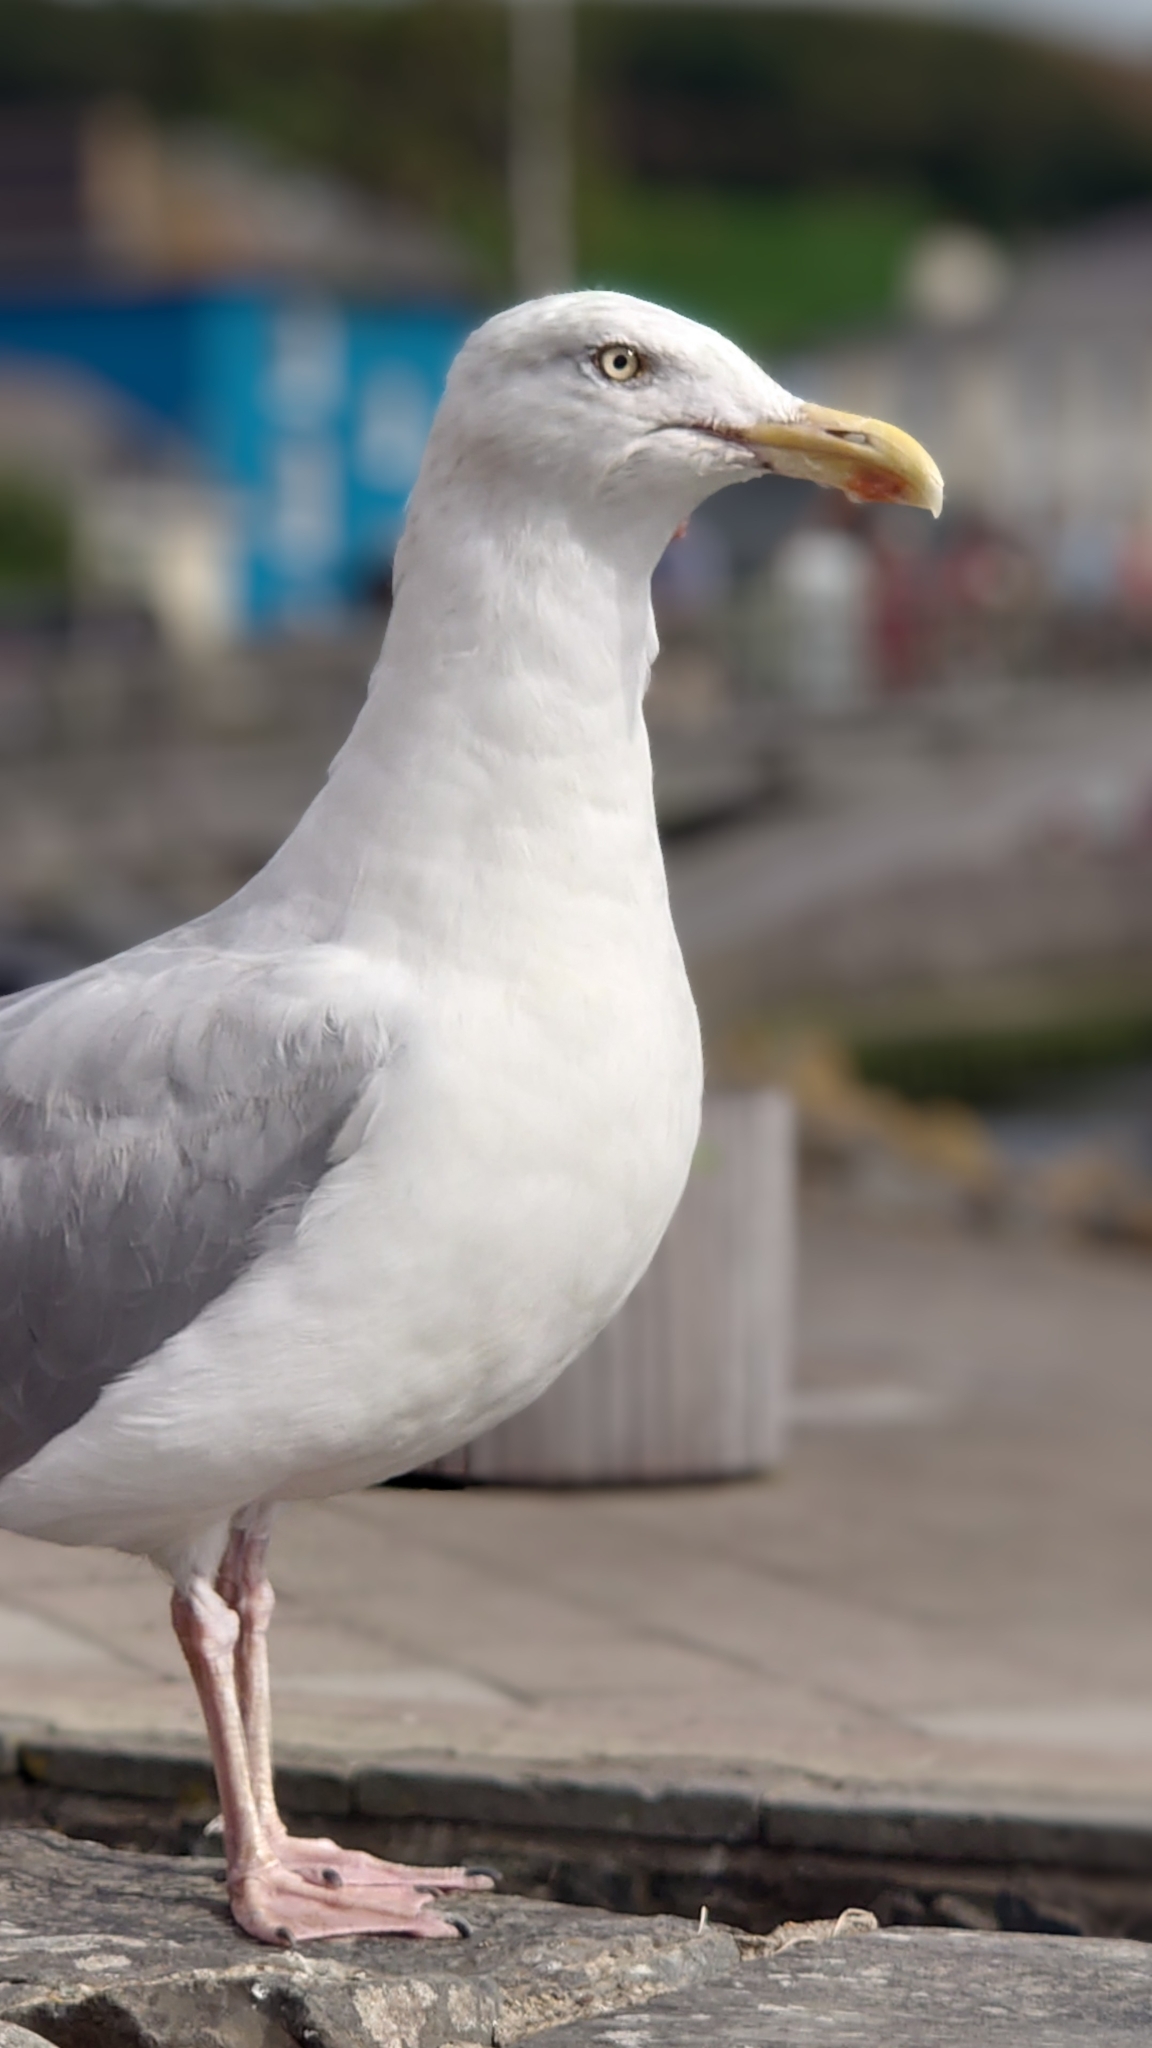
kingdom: Animalia
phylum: Chordata
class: Aves
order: Charadriiformes
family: Laridae
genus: Larus
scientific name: Larus argentatus
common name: Herring gull
